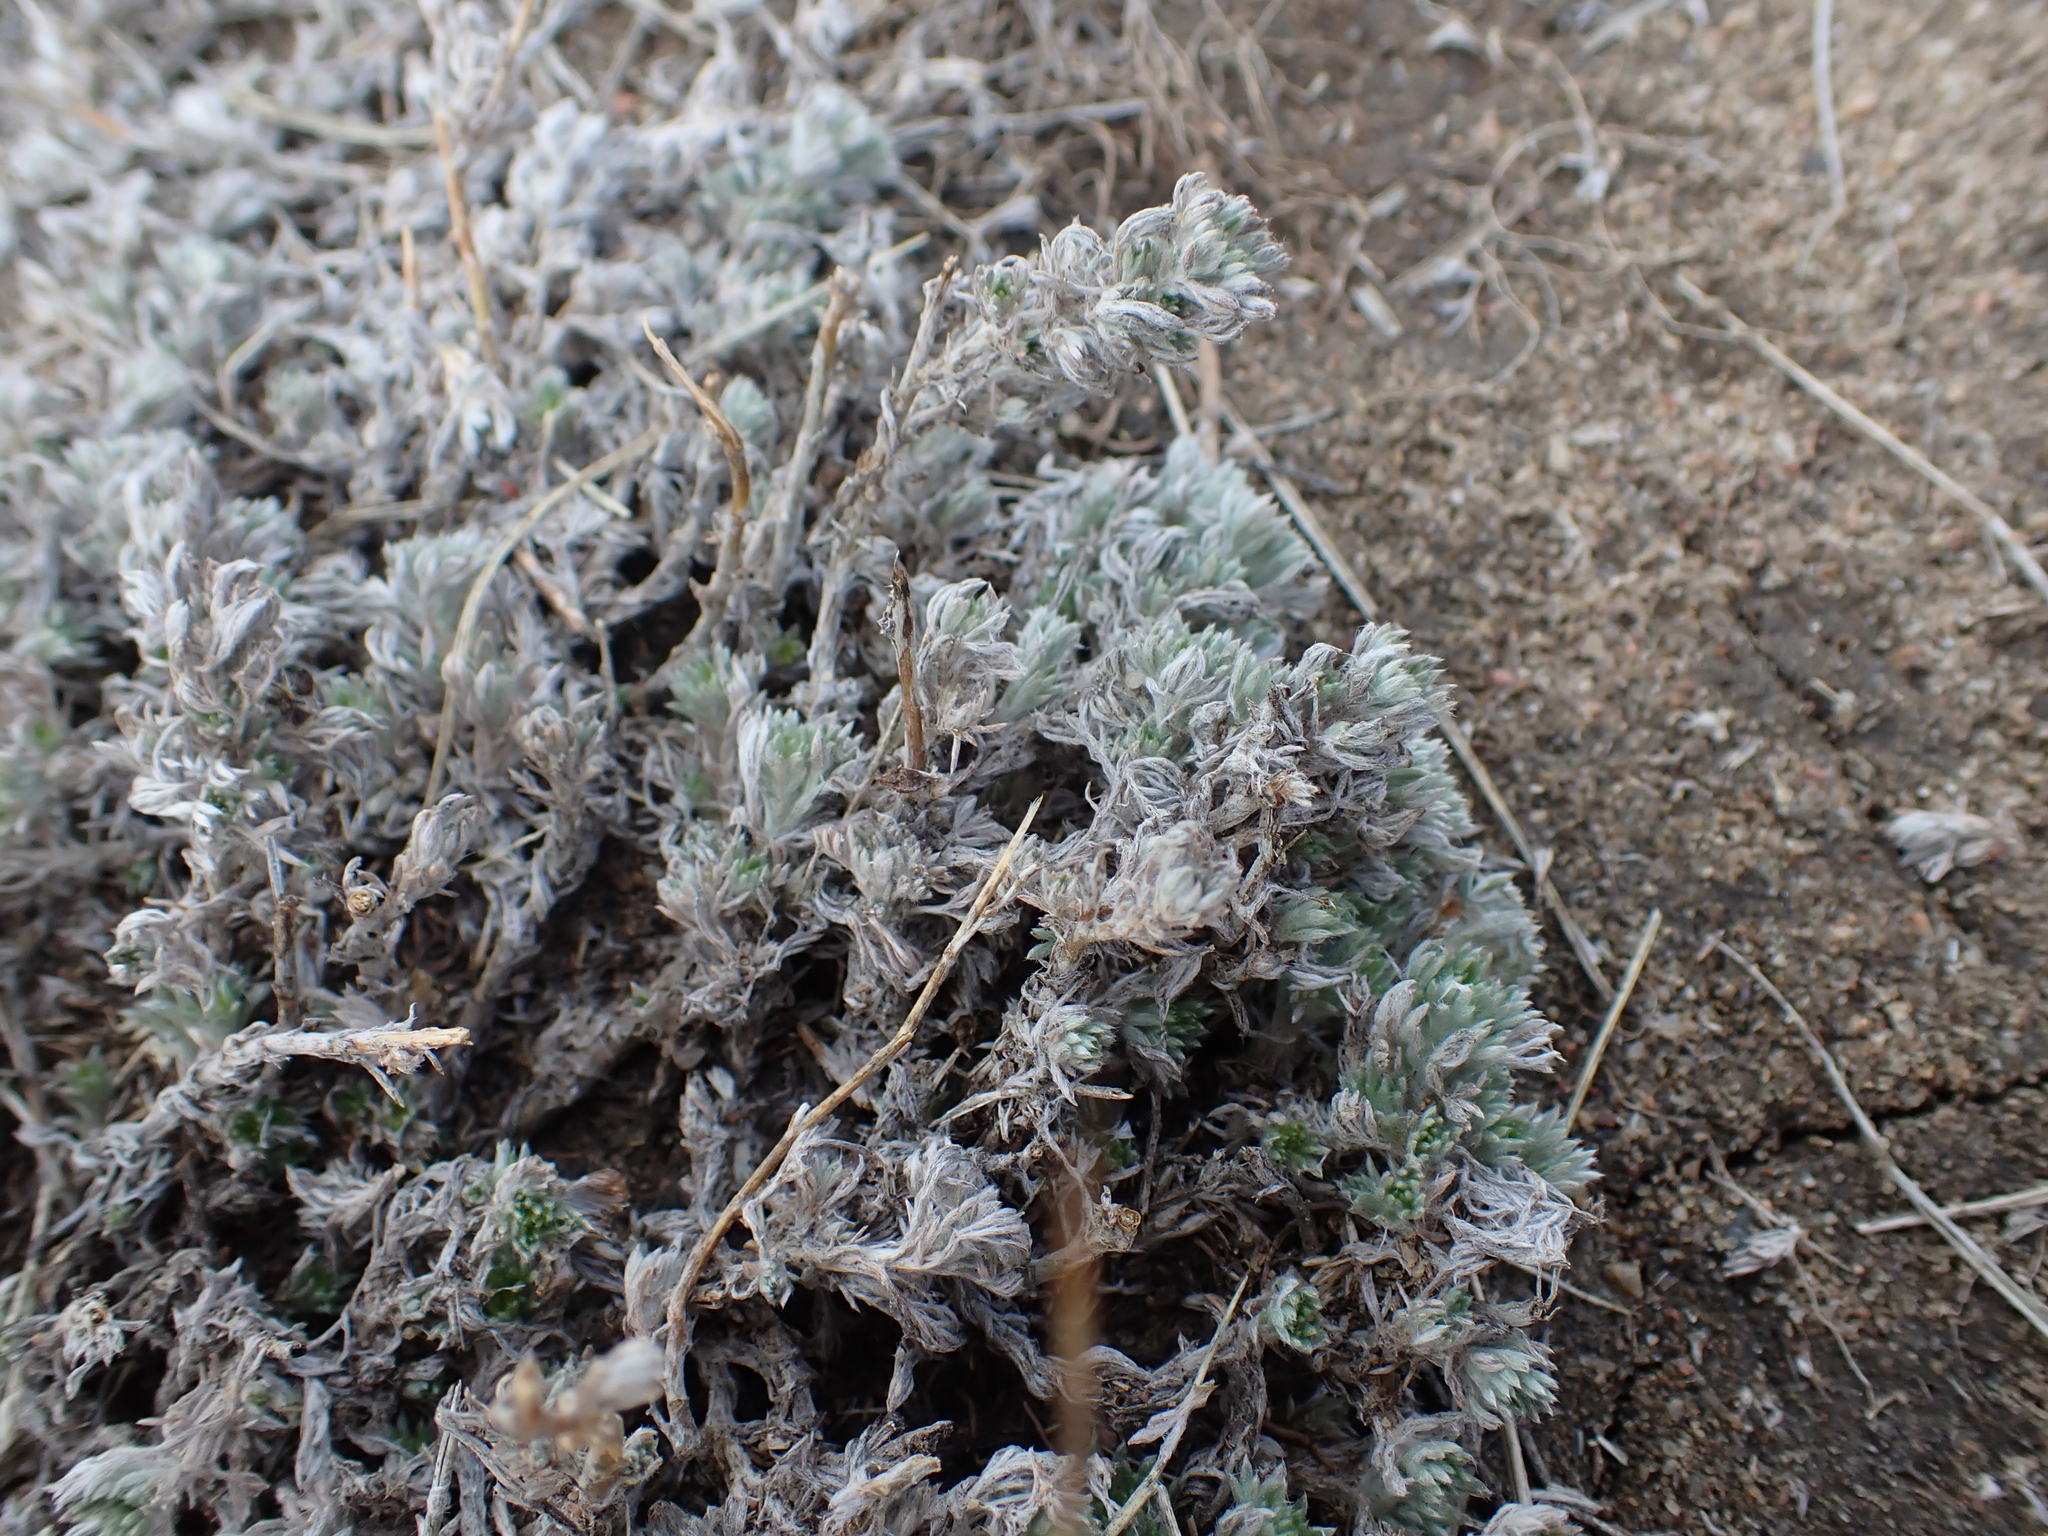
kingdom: Plantae
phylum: Tracheophyta
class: Magnoliopsida
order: Asterales
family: Asteraceae
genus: Artemisia
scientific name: Artemisia frigida
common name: Prairie sagewort
